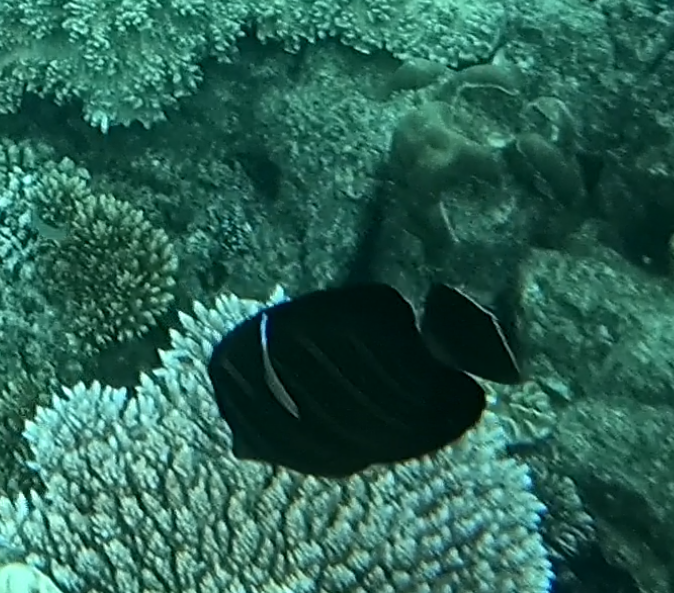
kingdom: Animalia
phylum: Chordata
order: Perciformes
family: Acanthuridae
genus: Zebrasoma
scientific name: Zebrasoma veliferum
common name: Sailfin surgeonfish
